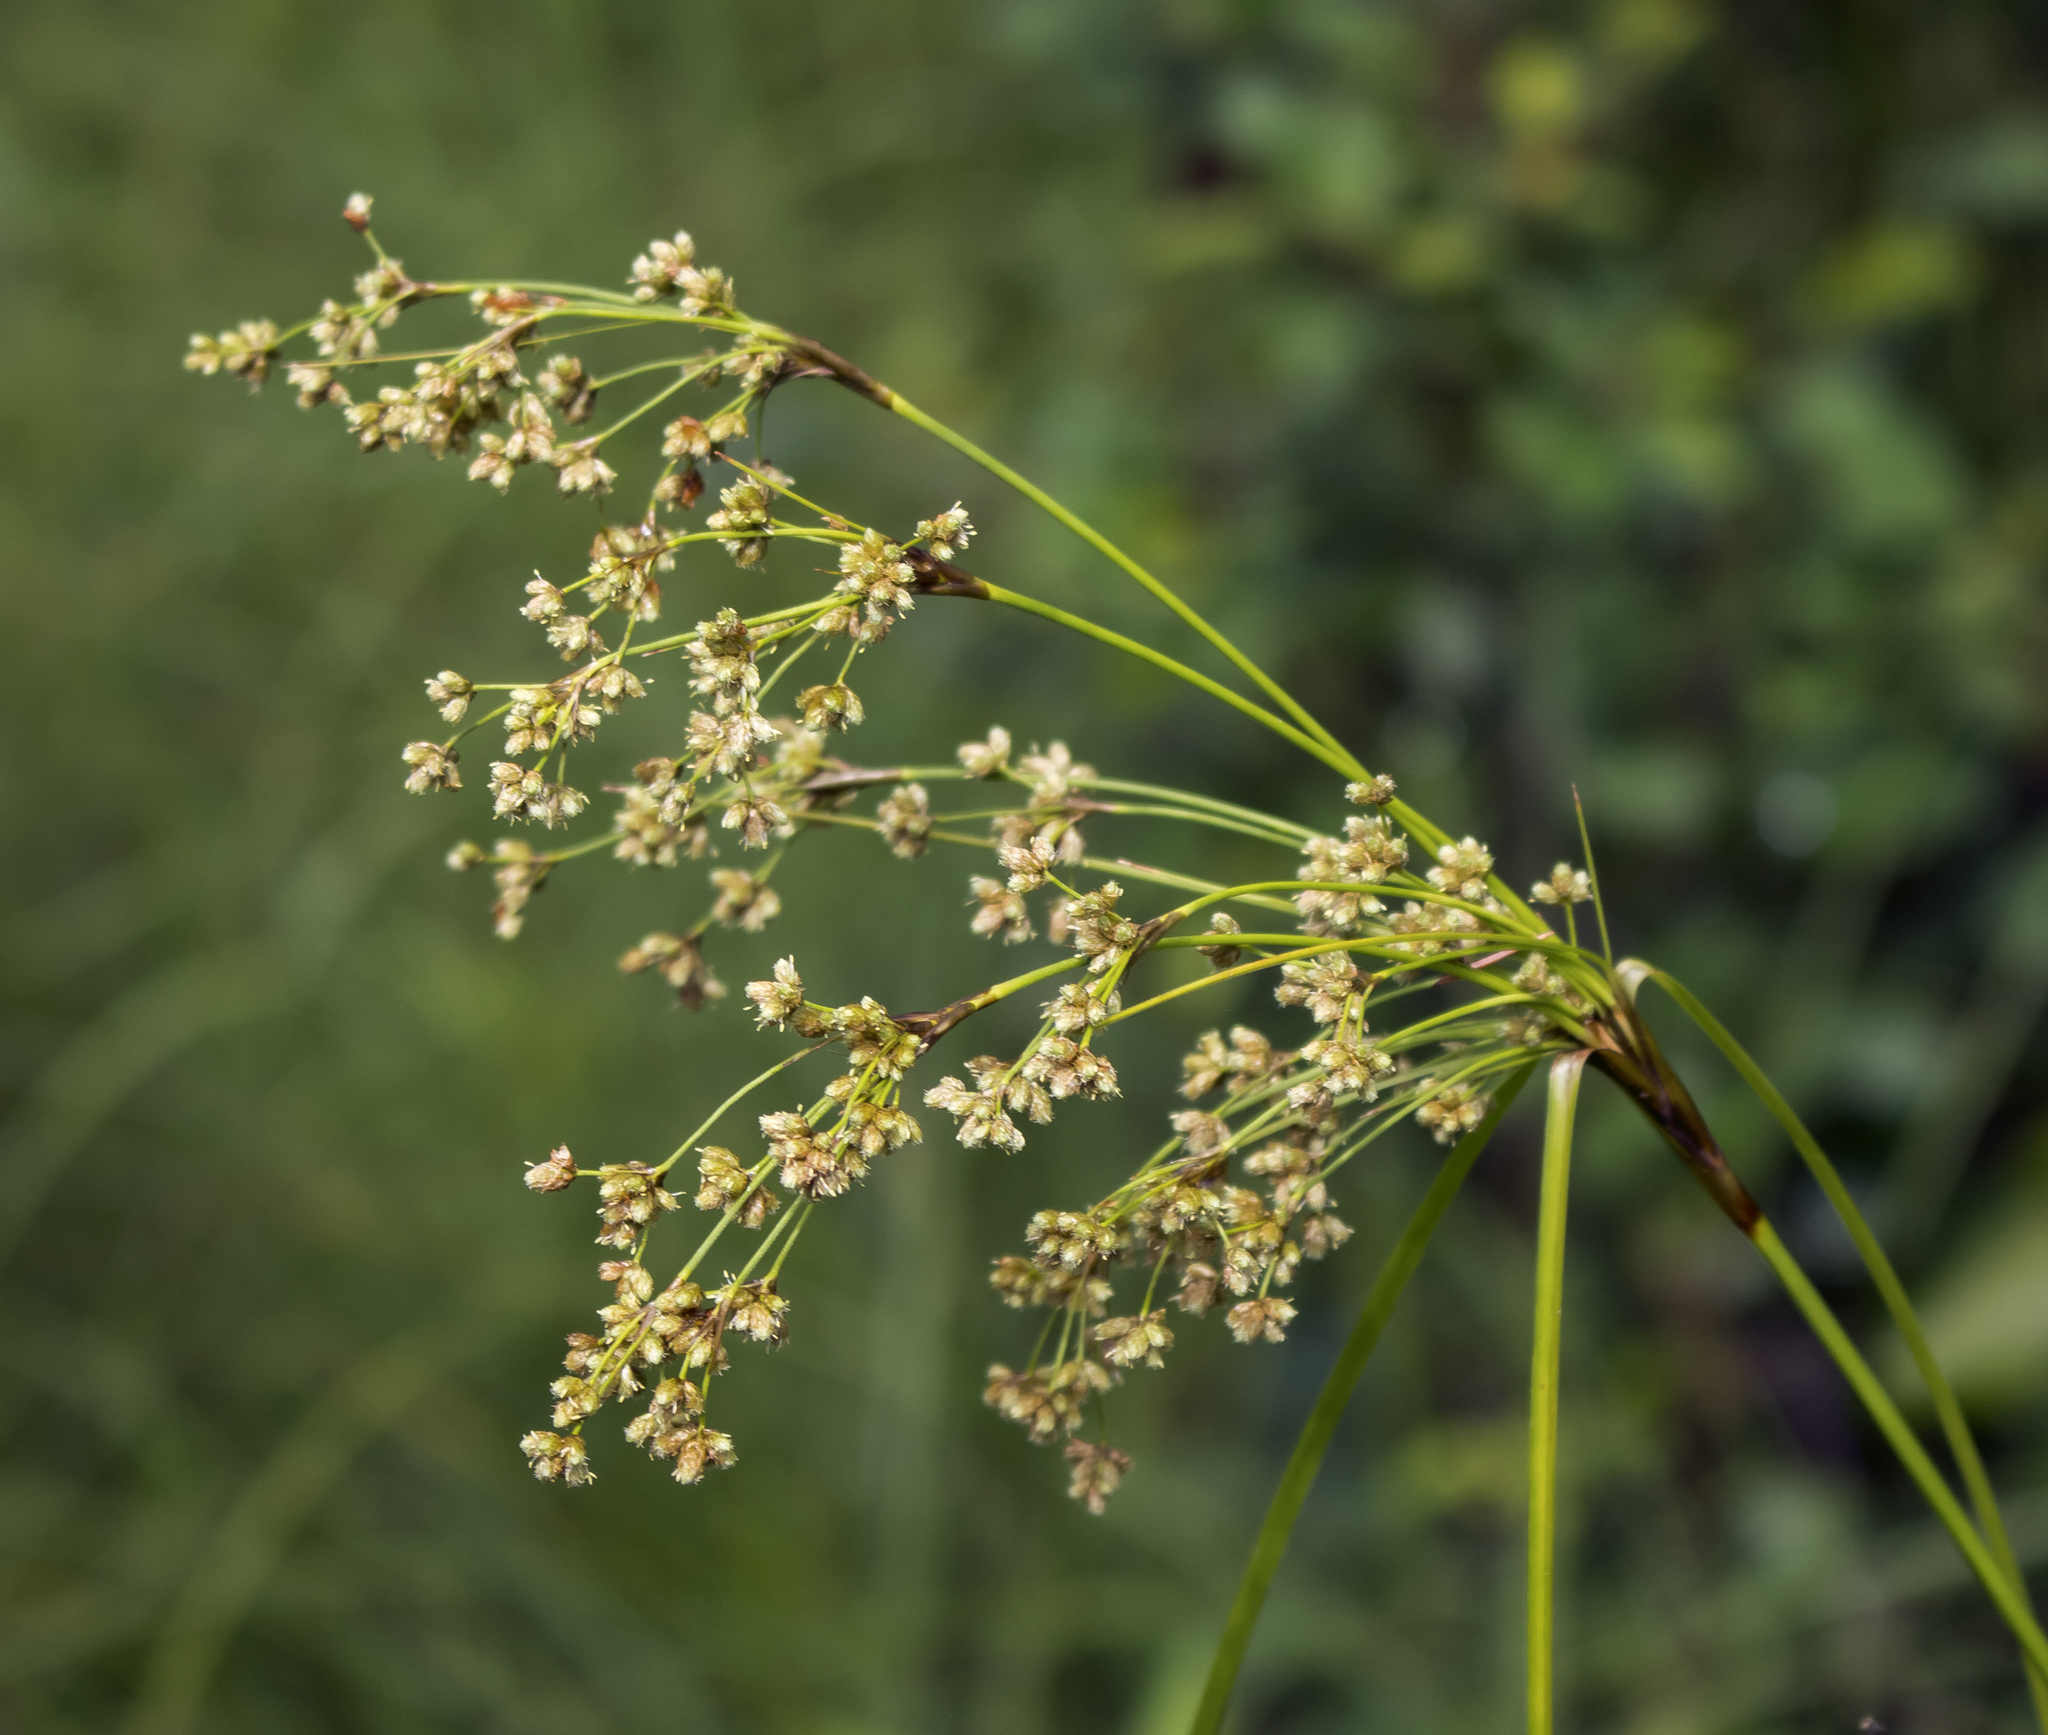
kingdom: Plantae
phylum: Tracheophyta
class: Liliopsida
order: Poales
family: Cyperaceae
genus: Scirpus
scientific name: Scirpus cyperinus
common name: Black-sheathed bulrush
